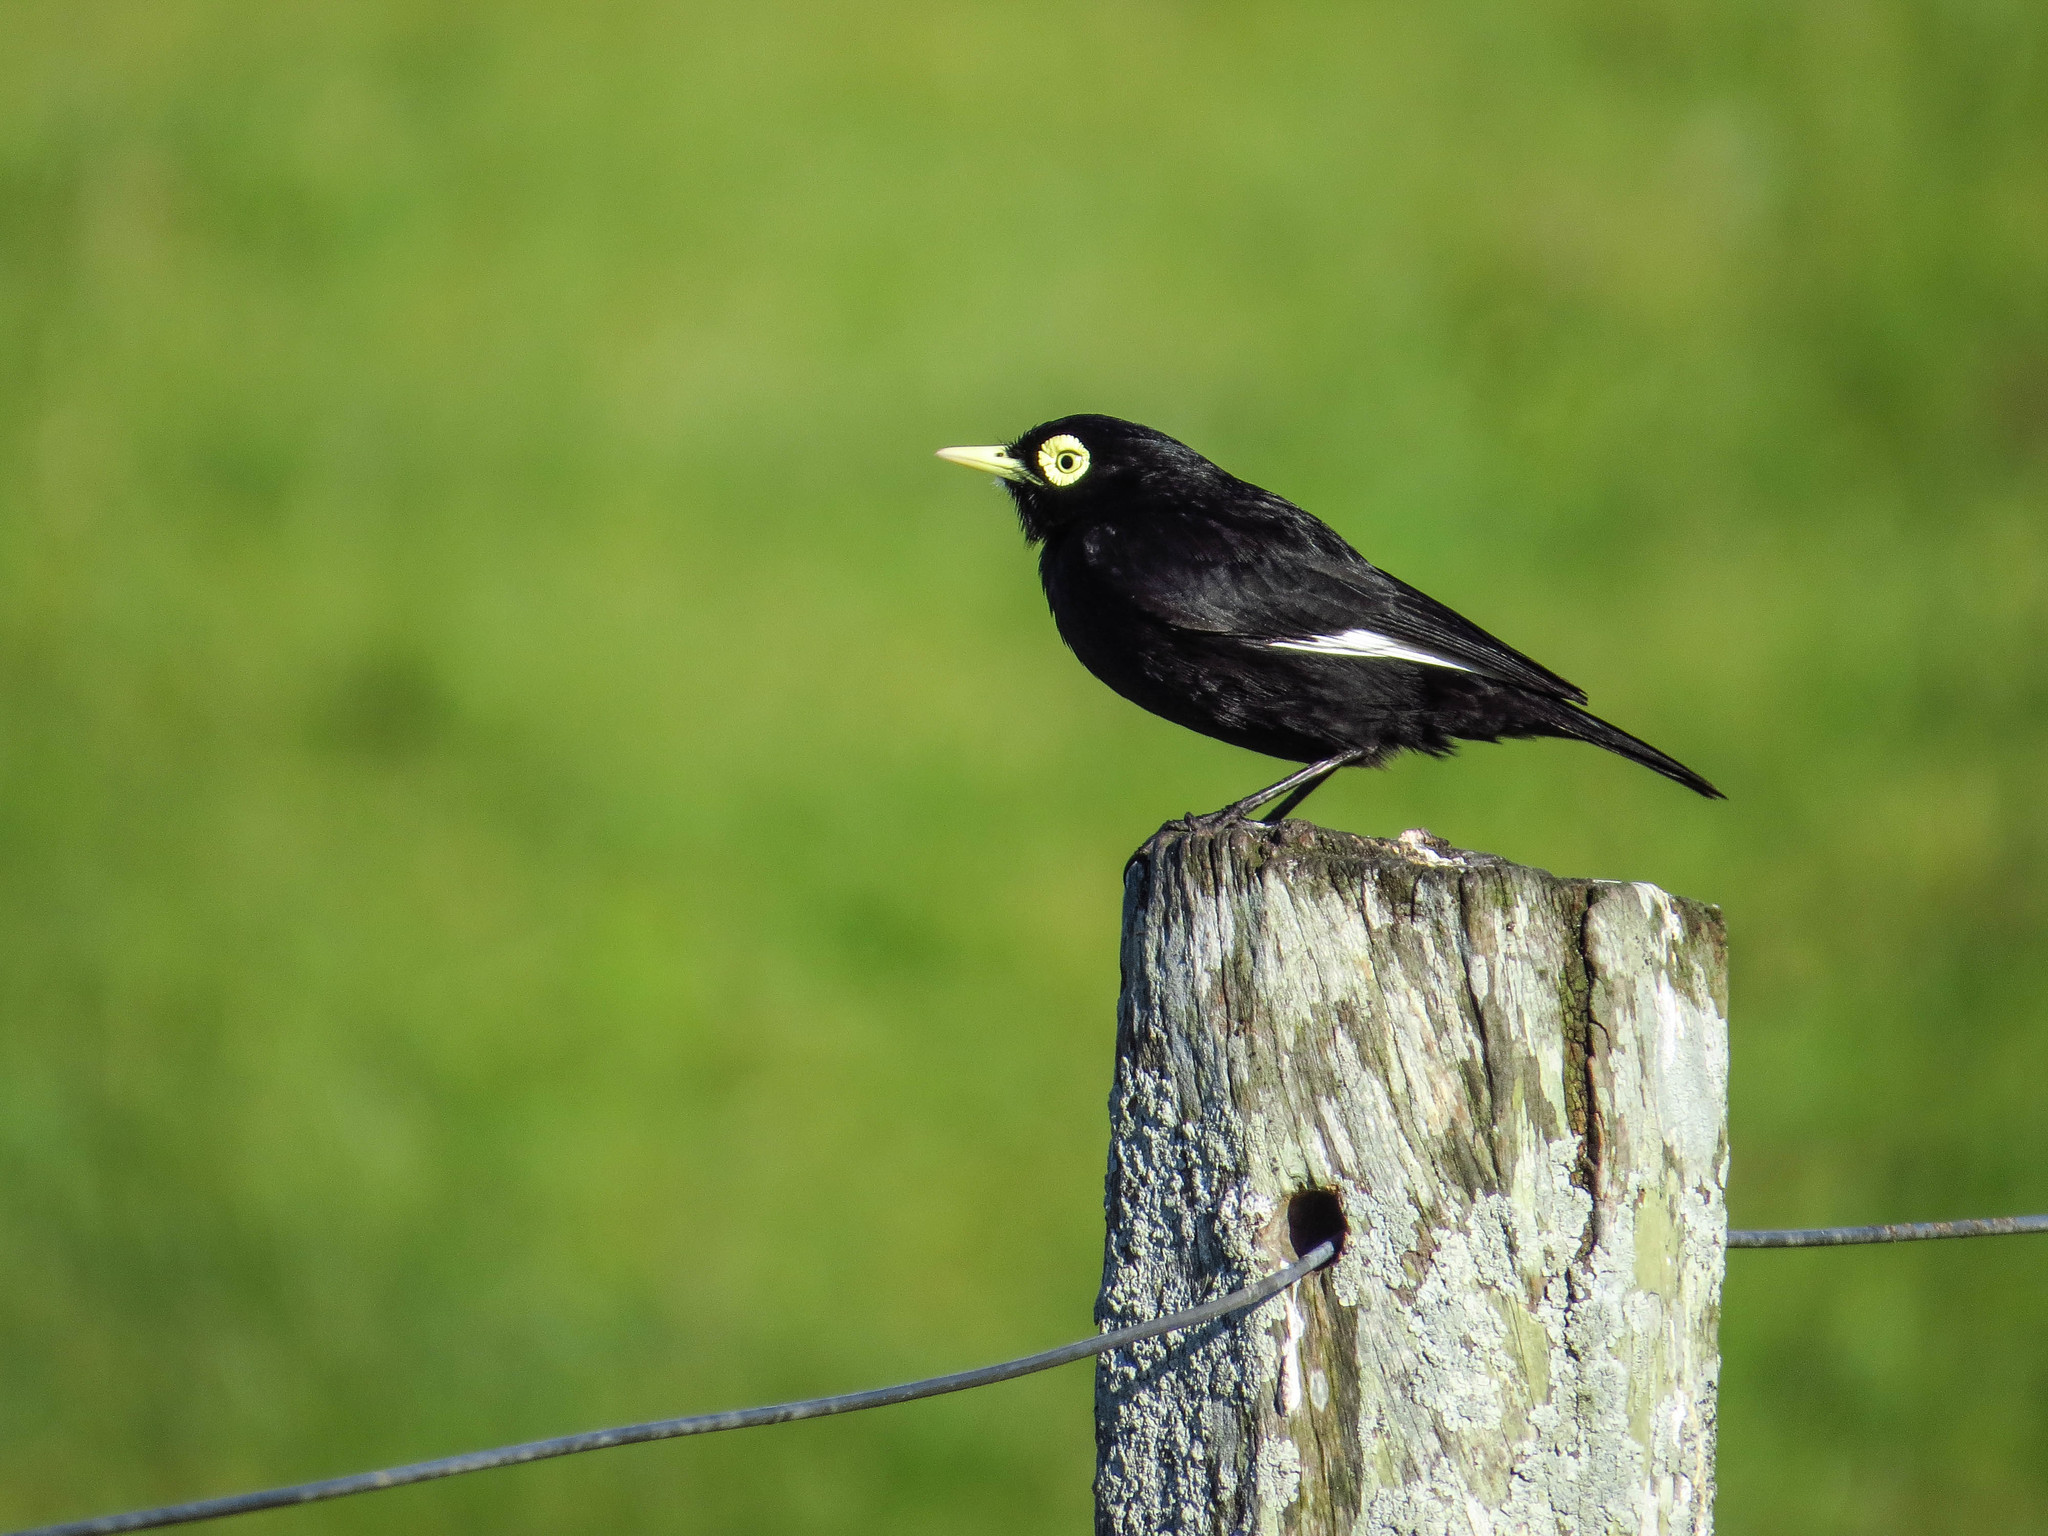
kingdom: Animalia
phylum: Chordata
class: Aves
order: Passeriformes
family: Tyrannidae
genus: Hymenops
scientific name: Hymenops perspicillatus
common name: Spectacled tyrant
